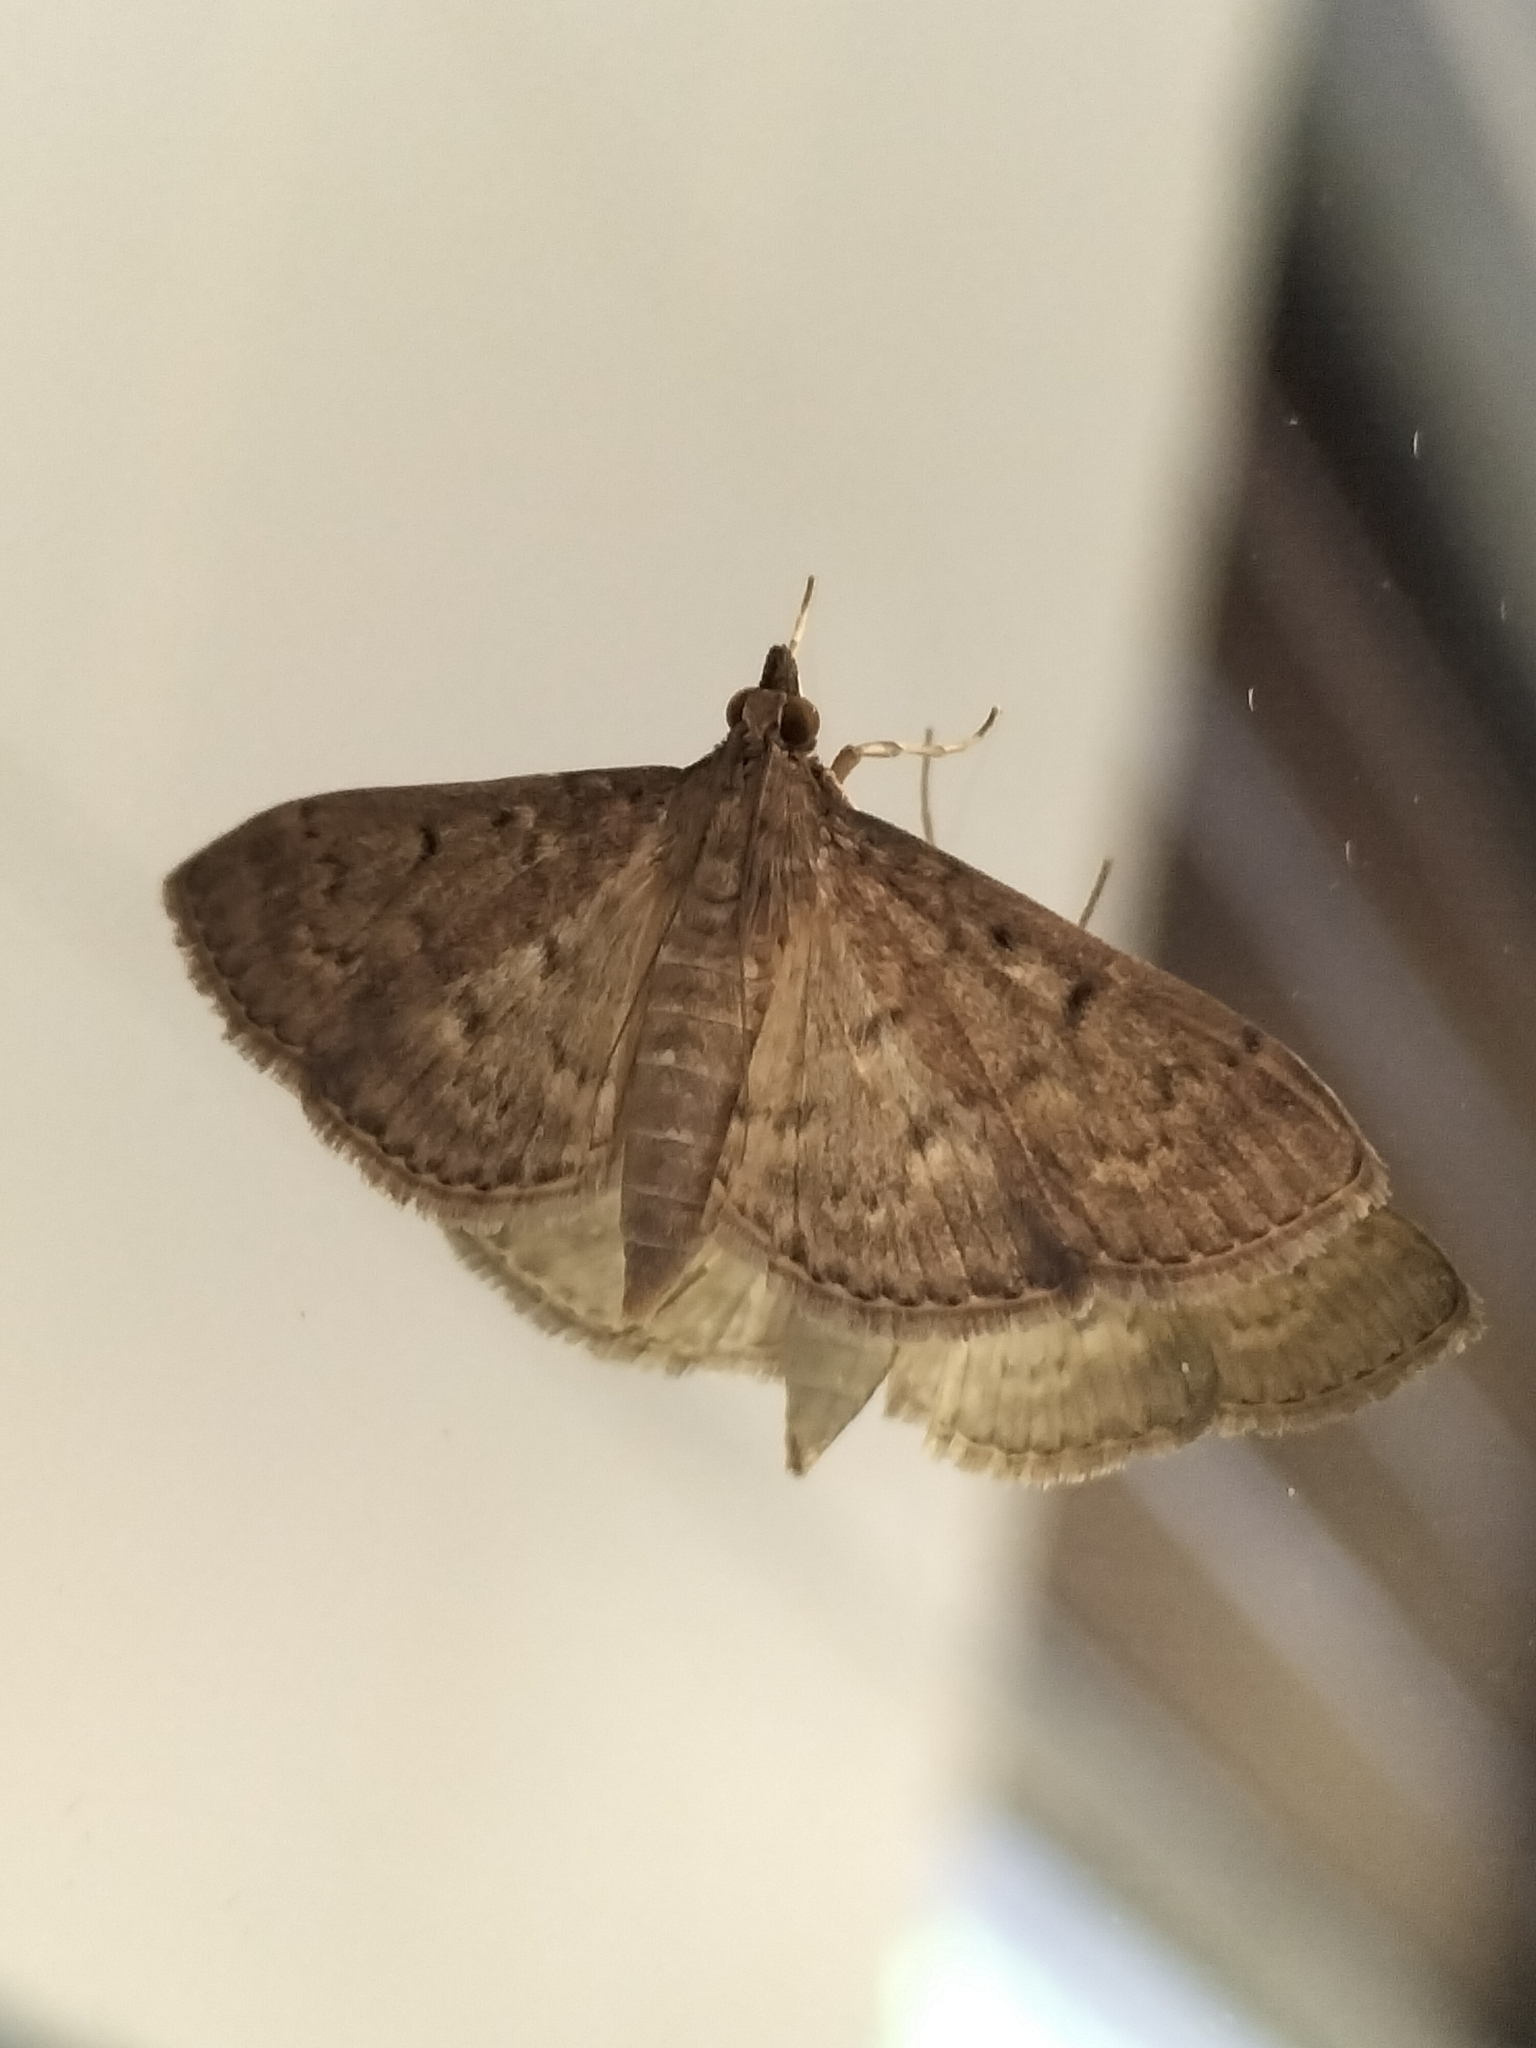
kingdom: Animalia
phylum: Arthropoda
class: Insecta
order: Lepidoptera
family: Crambidae
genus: Herpetogramma
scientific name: Herpetogramma licarsisalis
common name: Grass webworm
